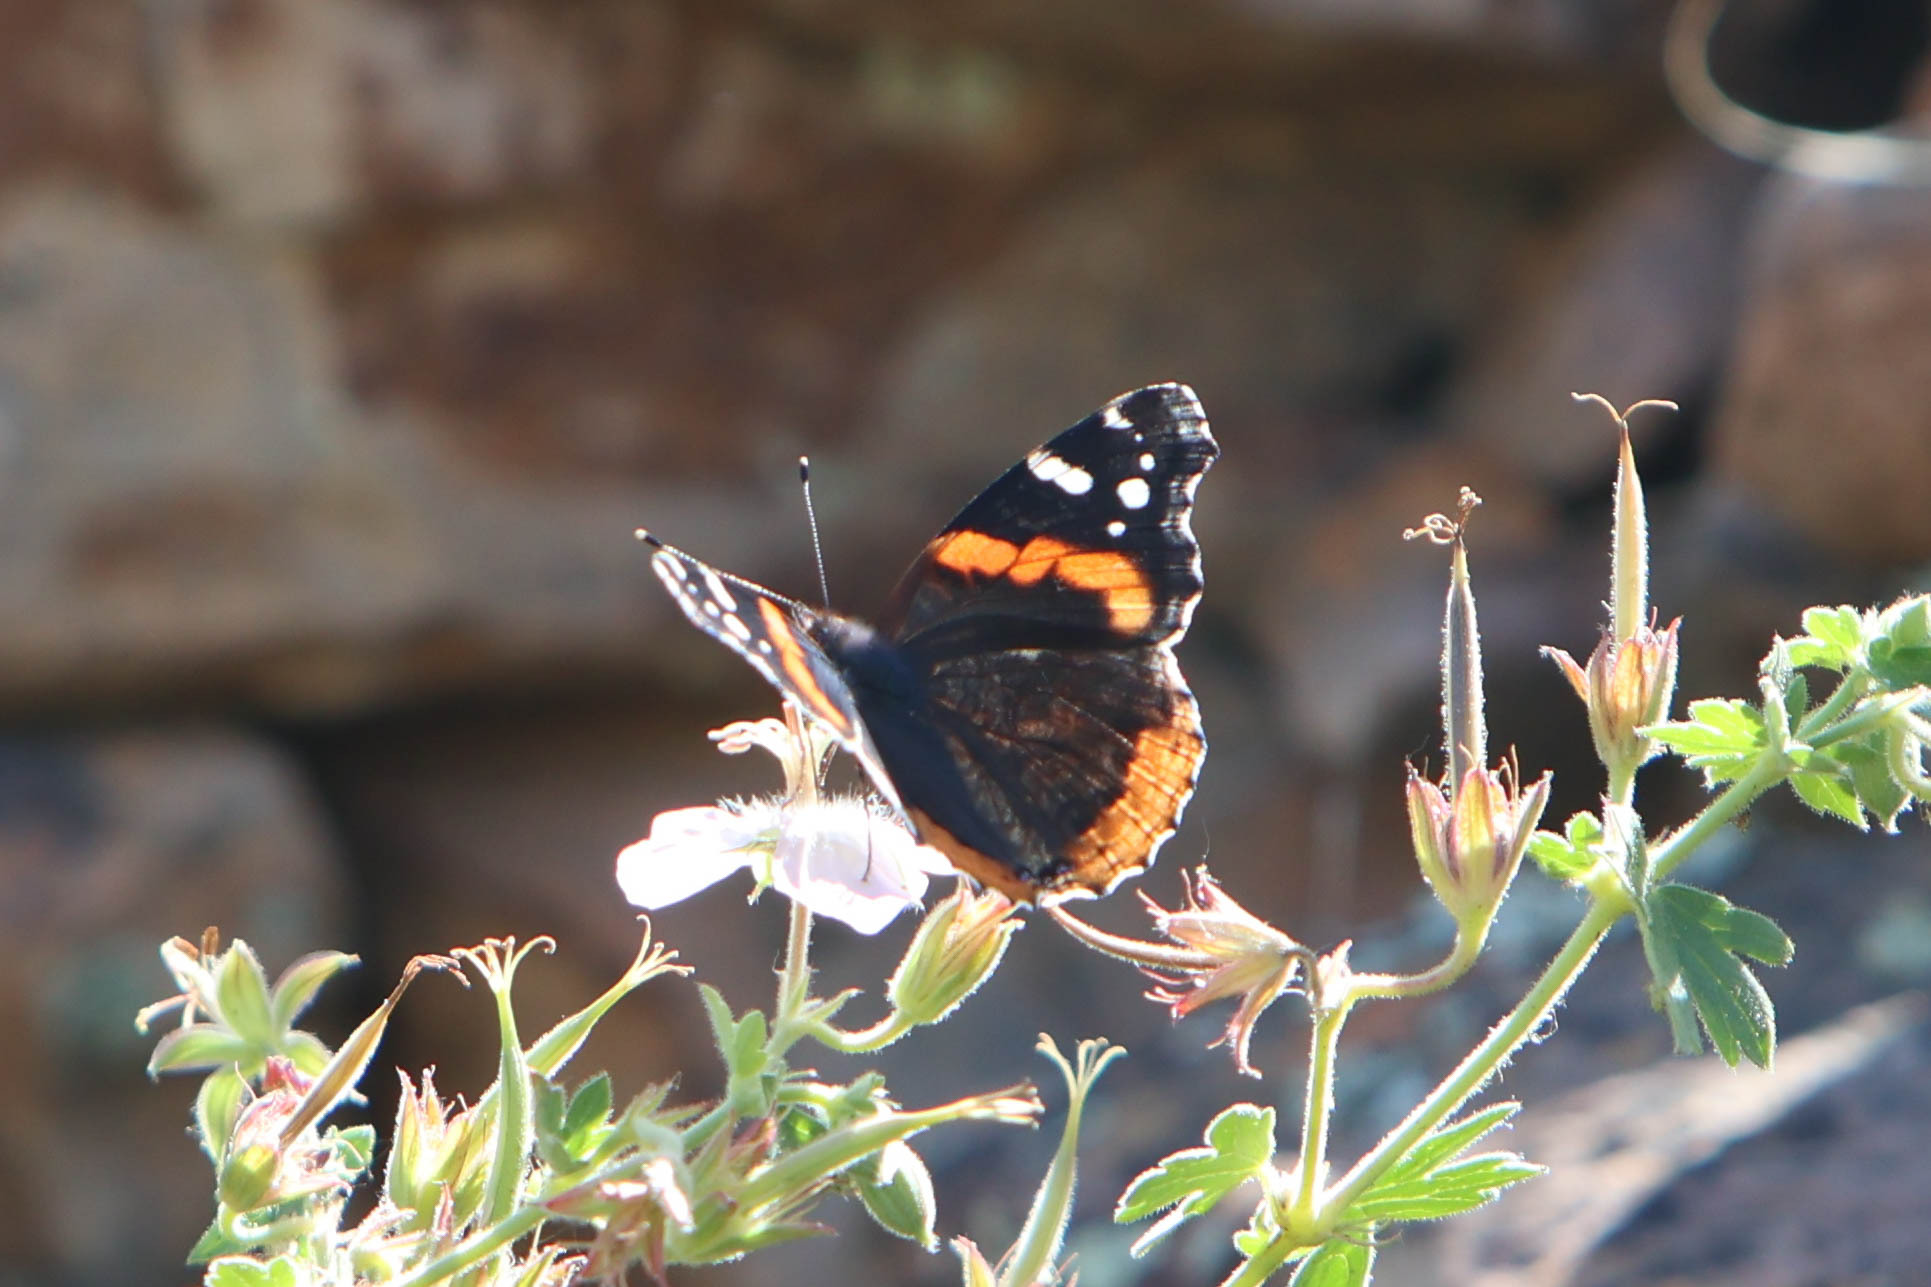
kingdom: Animalia
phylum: Arthropoda
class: Insecta
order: Lepidoptera
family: Nymphalidae
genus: Vanessa
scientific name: Vanessa atalanta
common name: Red admiral
